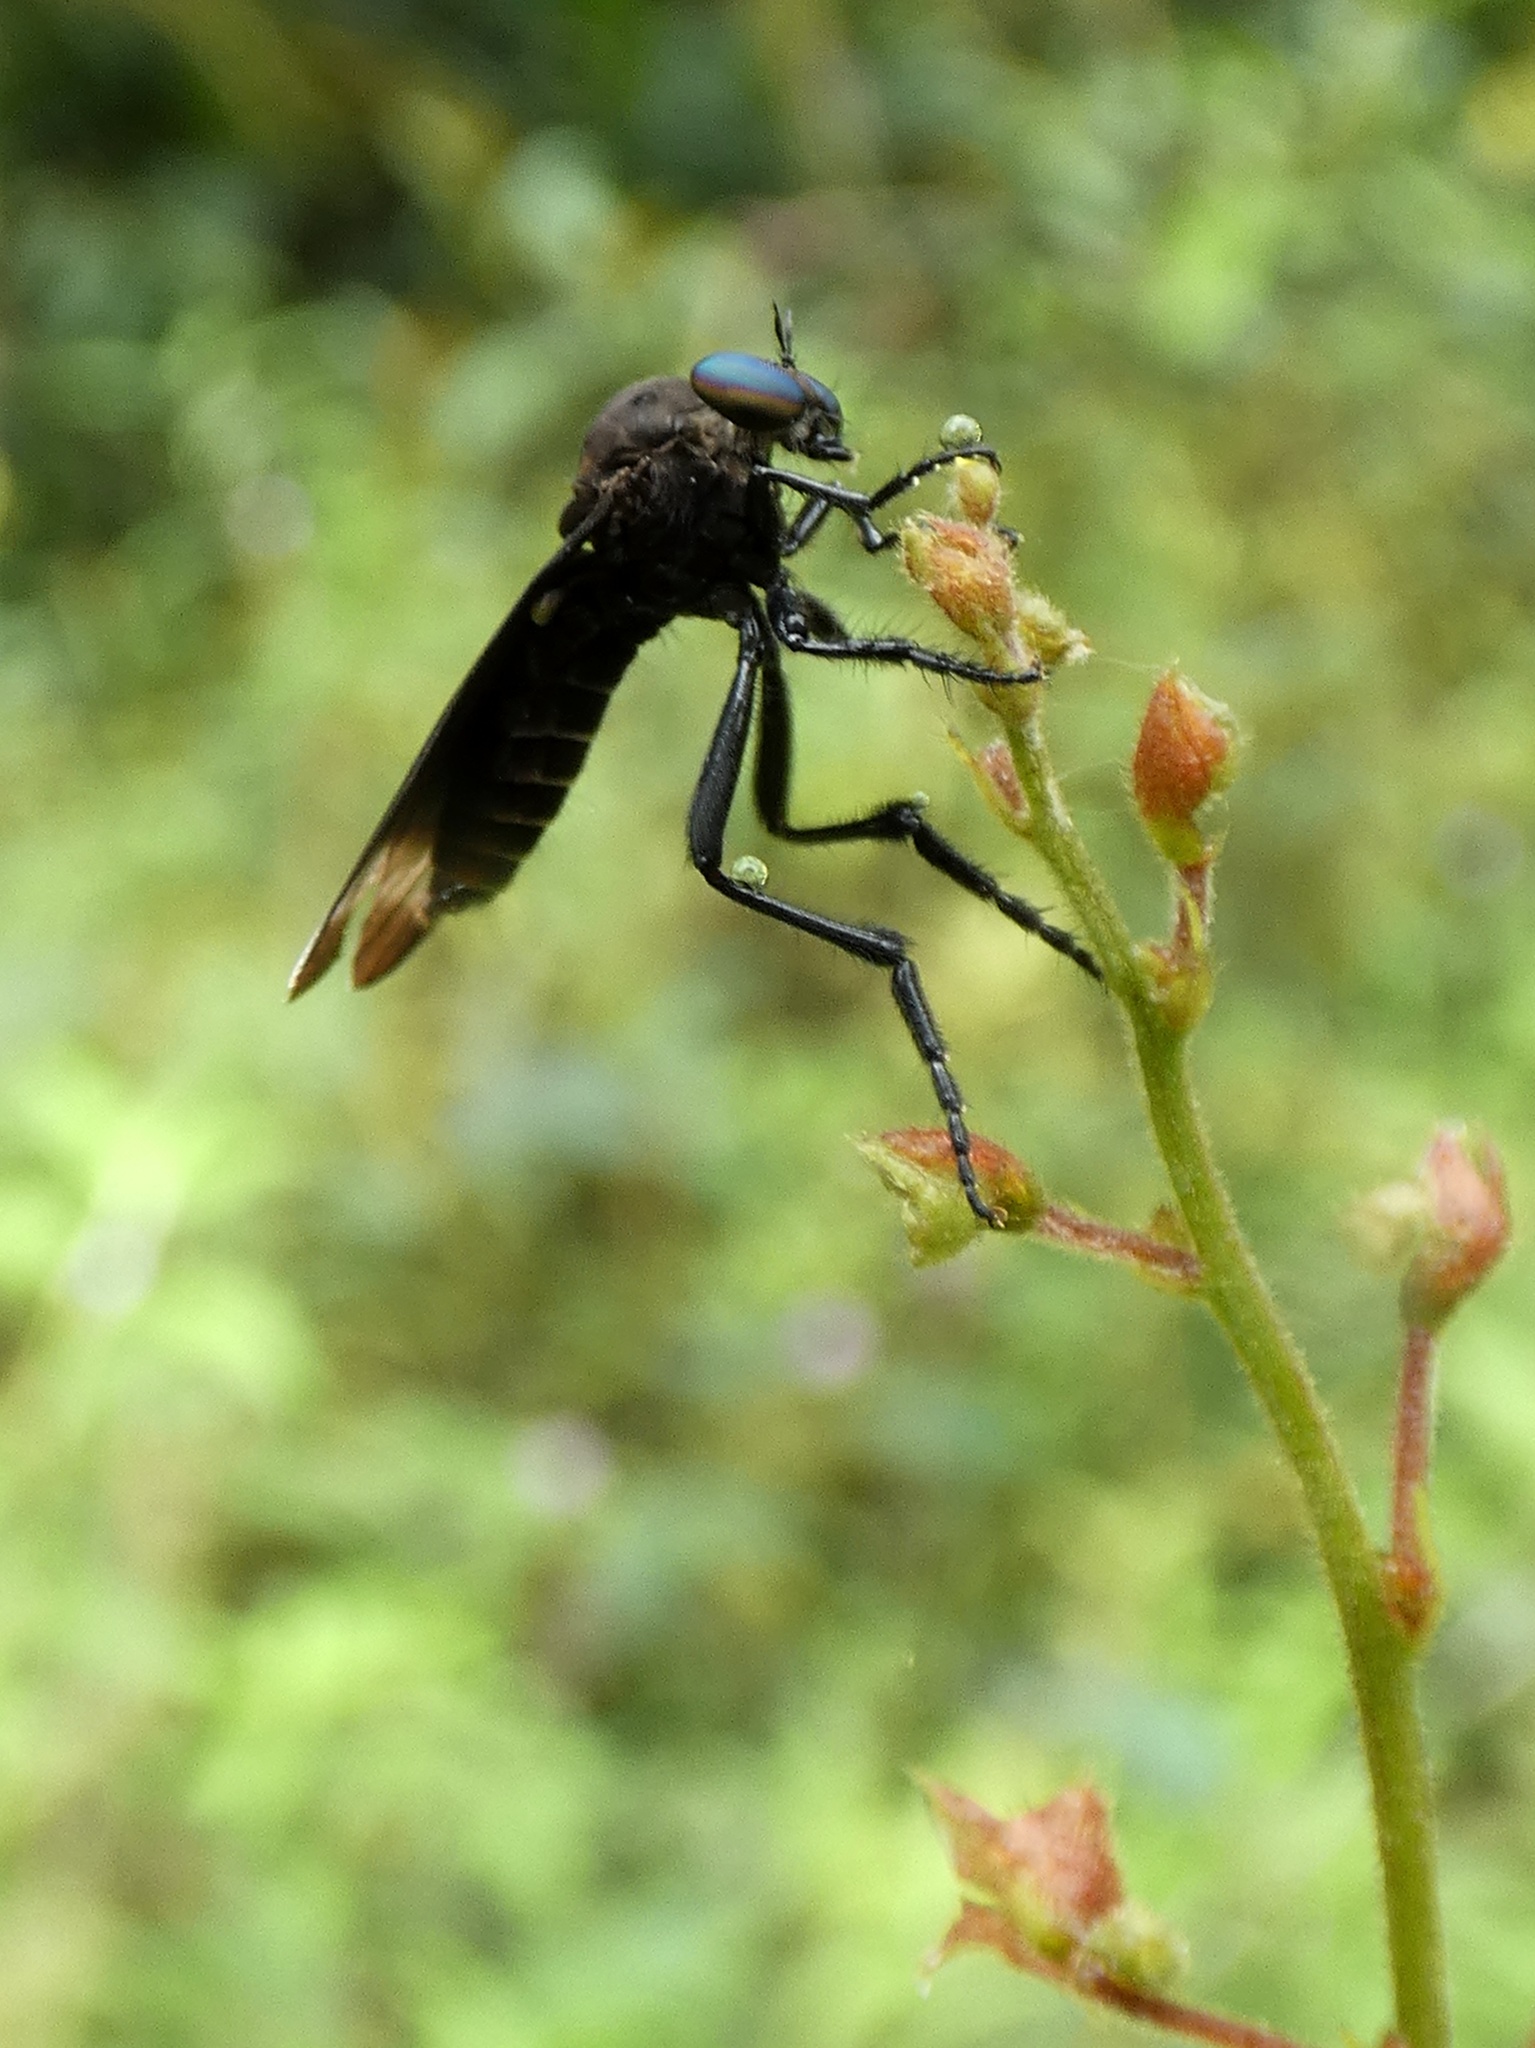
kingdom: Animalia
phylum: Arthropoda
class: Insecta
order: Diptera
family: Asilidae
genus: Holcocephala
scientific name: Holcocephala analis
